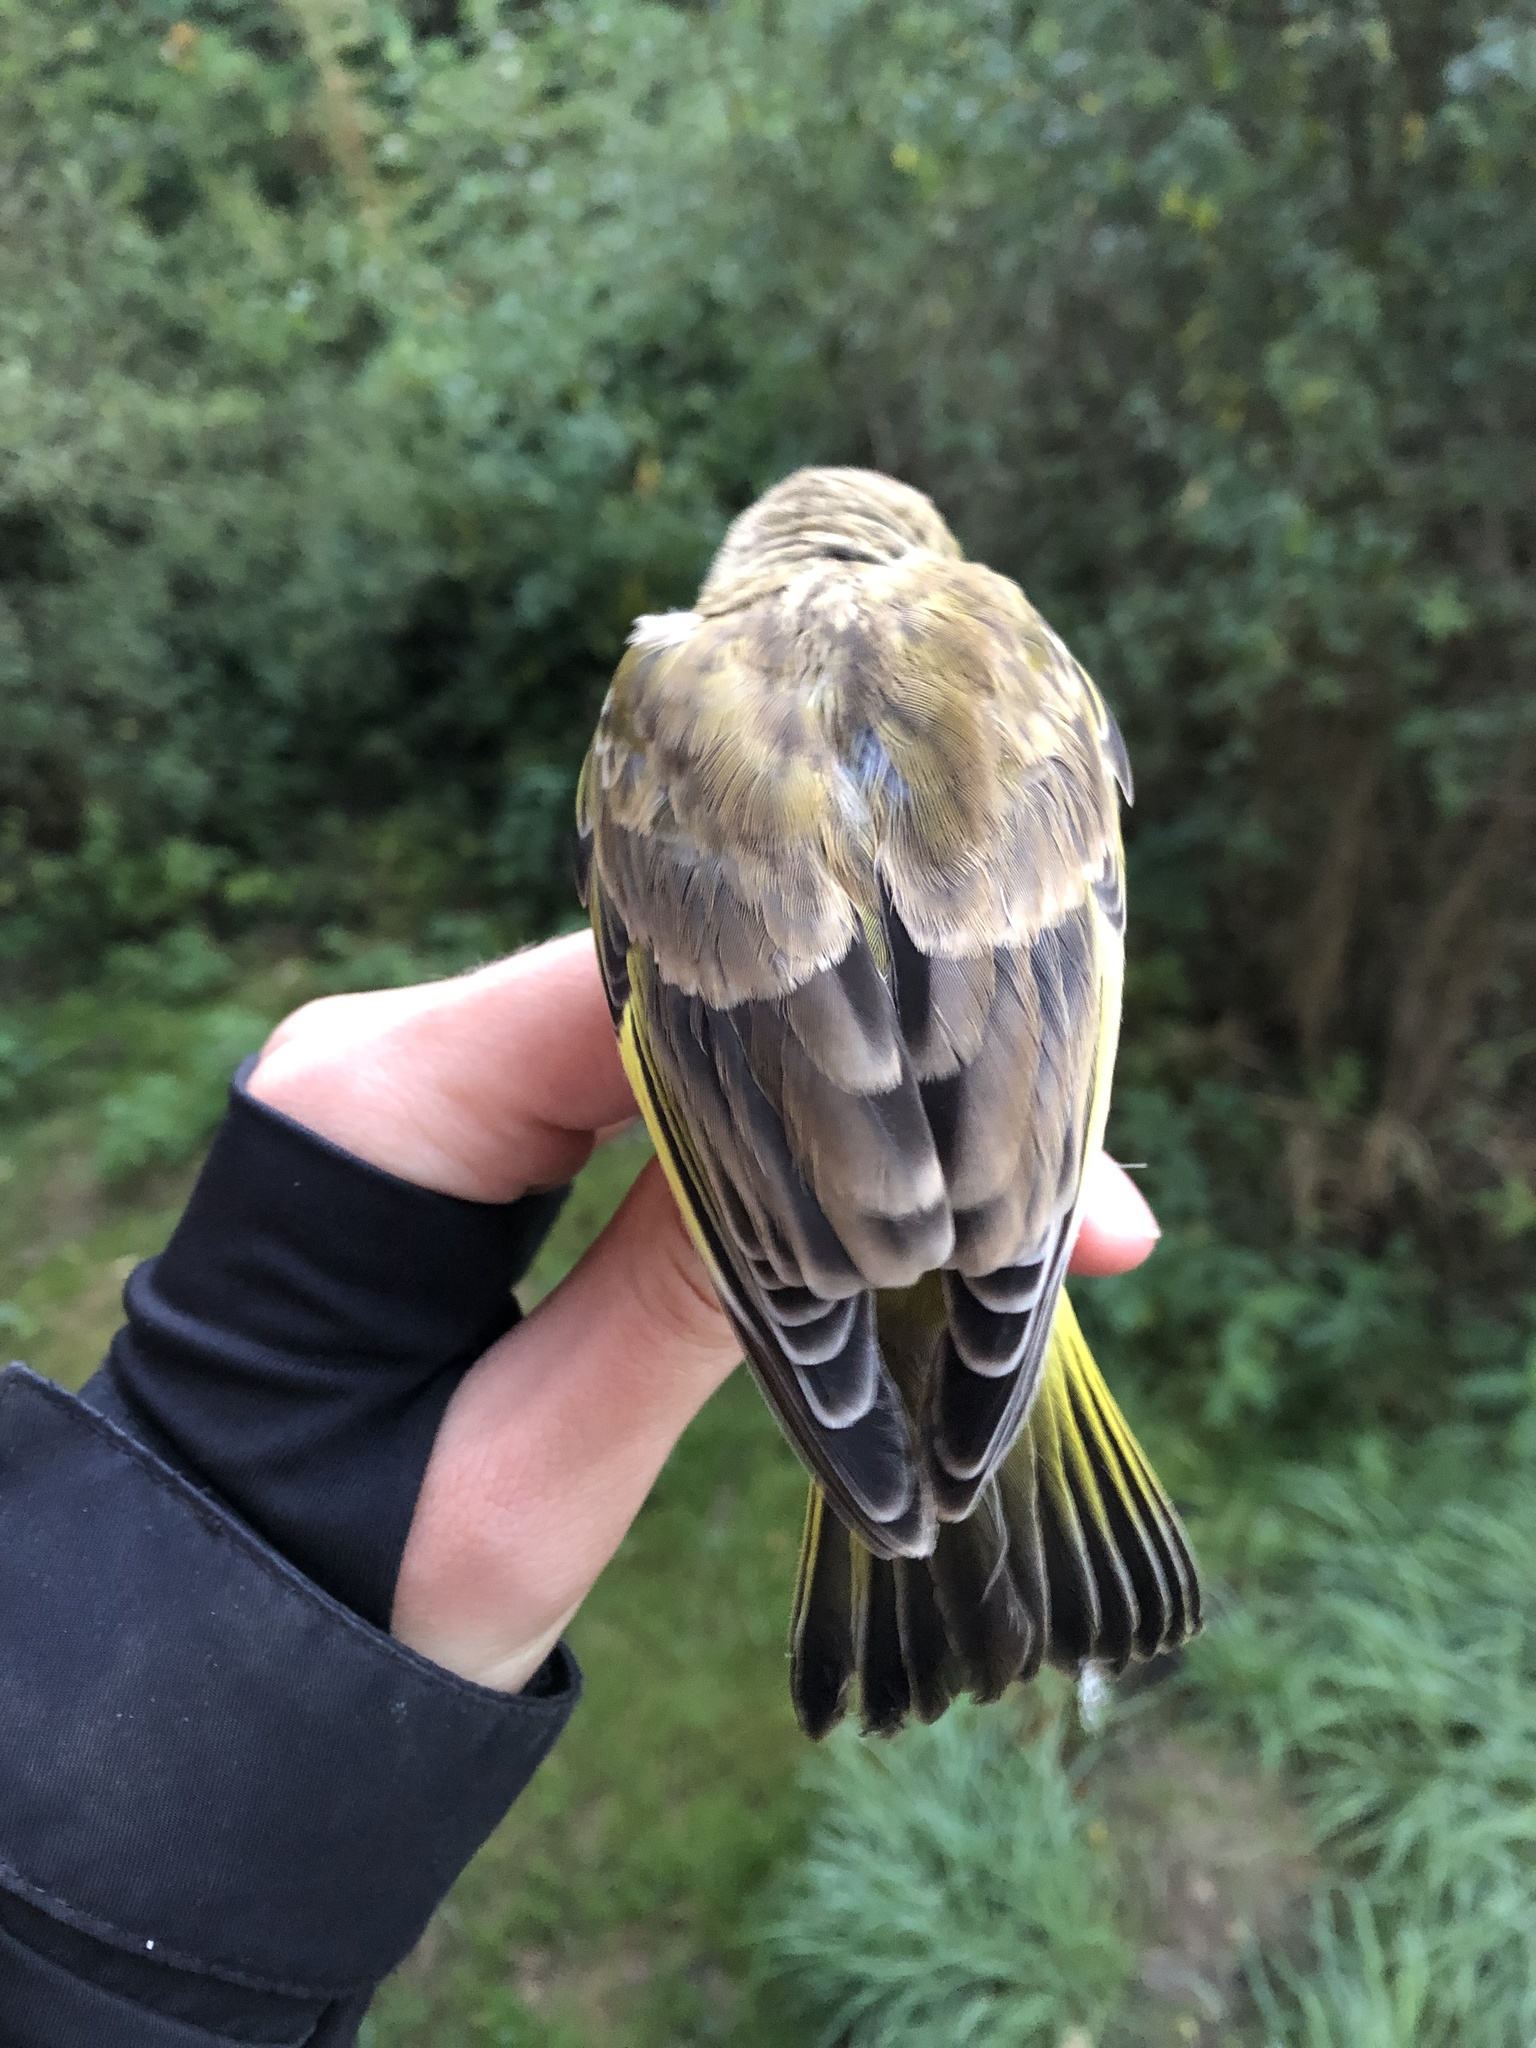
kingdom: Plantae
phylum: Tracheophyta
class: Liliopsida
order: Poales
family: Poaceae
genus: Chloris
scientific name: Chloris chloris
